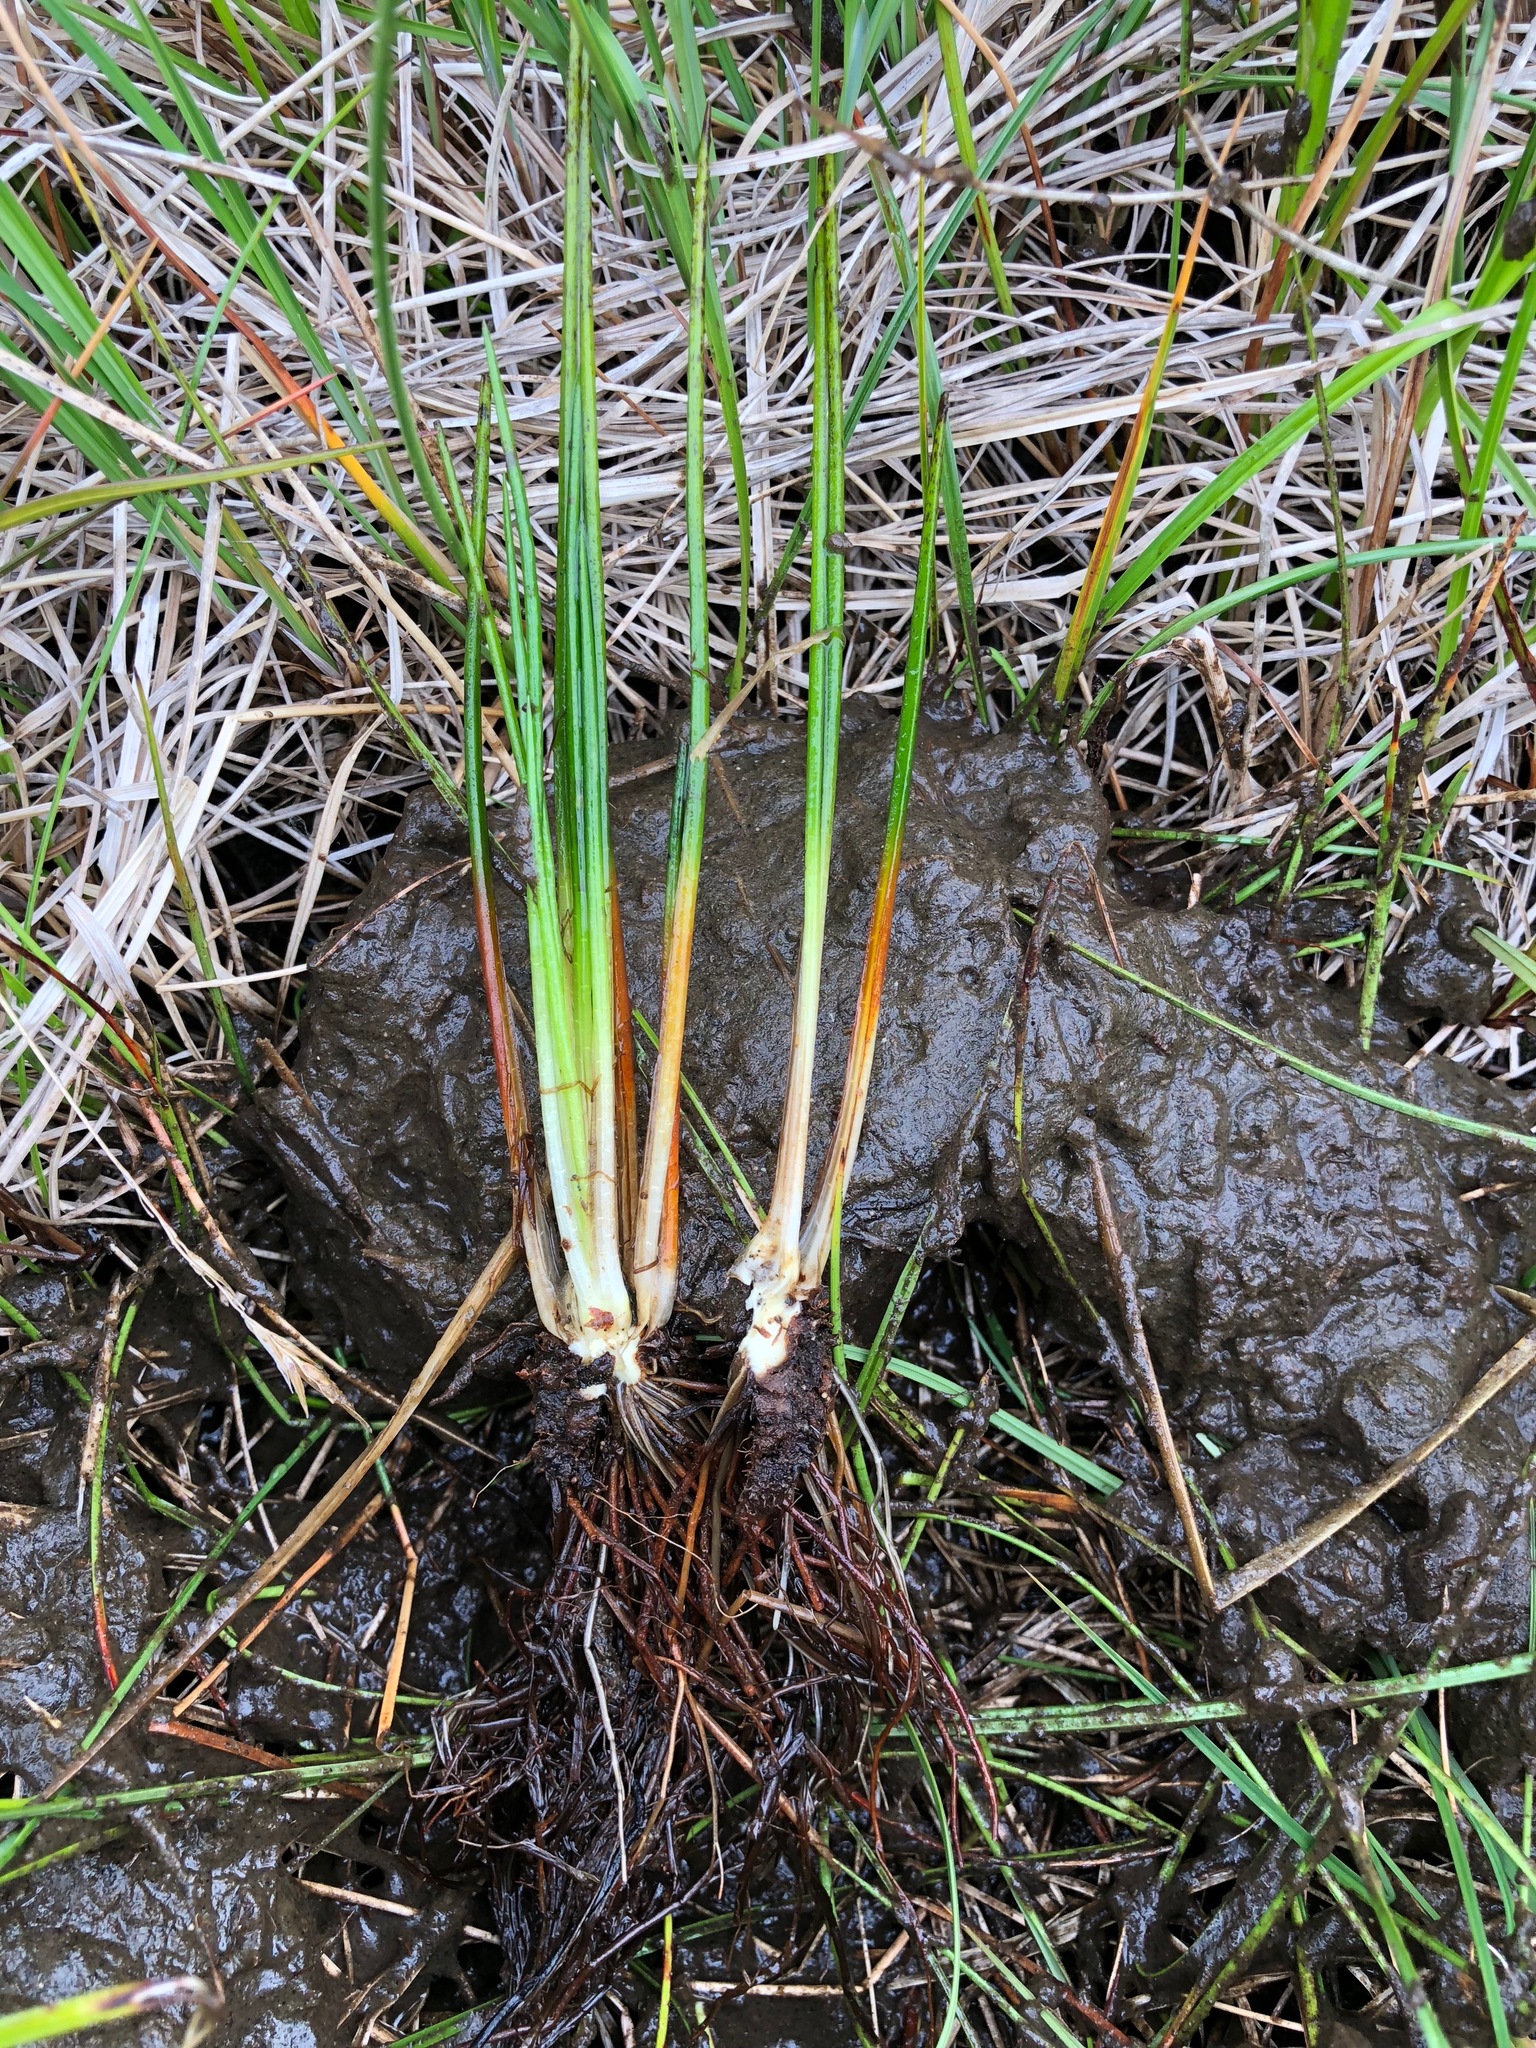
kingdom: Plantae
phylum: Tracheophyta
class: Lycopodiopsida
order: Isoetales
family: Isoetaceae
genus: Isoetes
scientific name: Isoetes occidentalis
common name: Western quillwort
